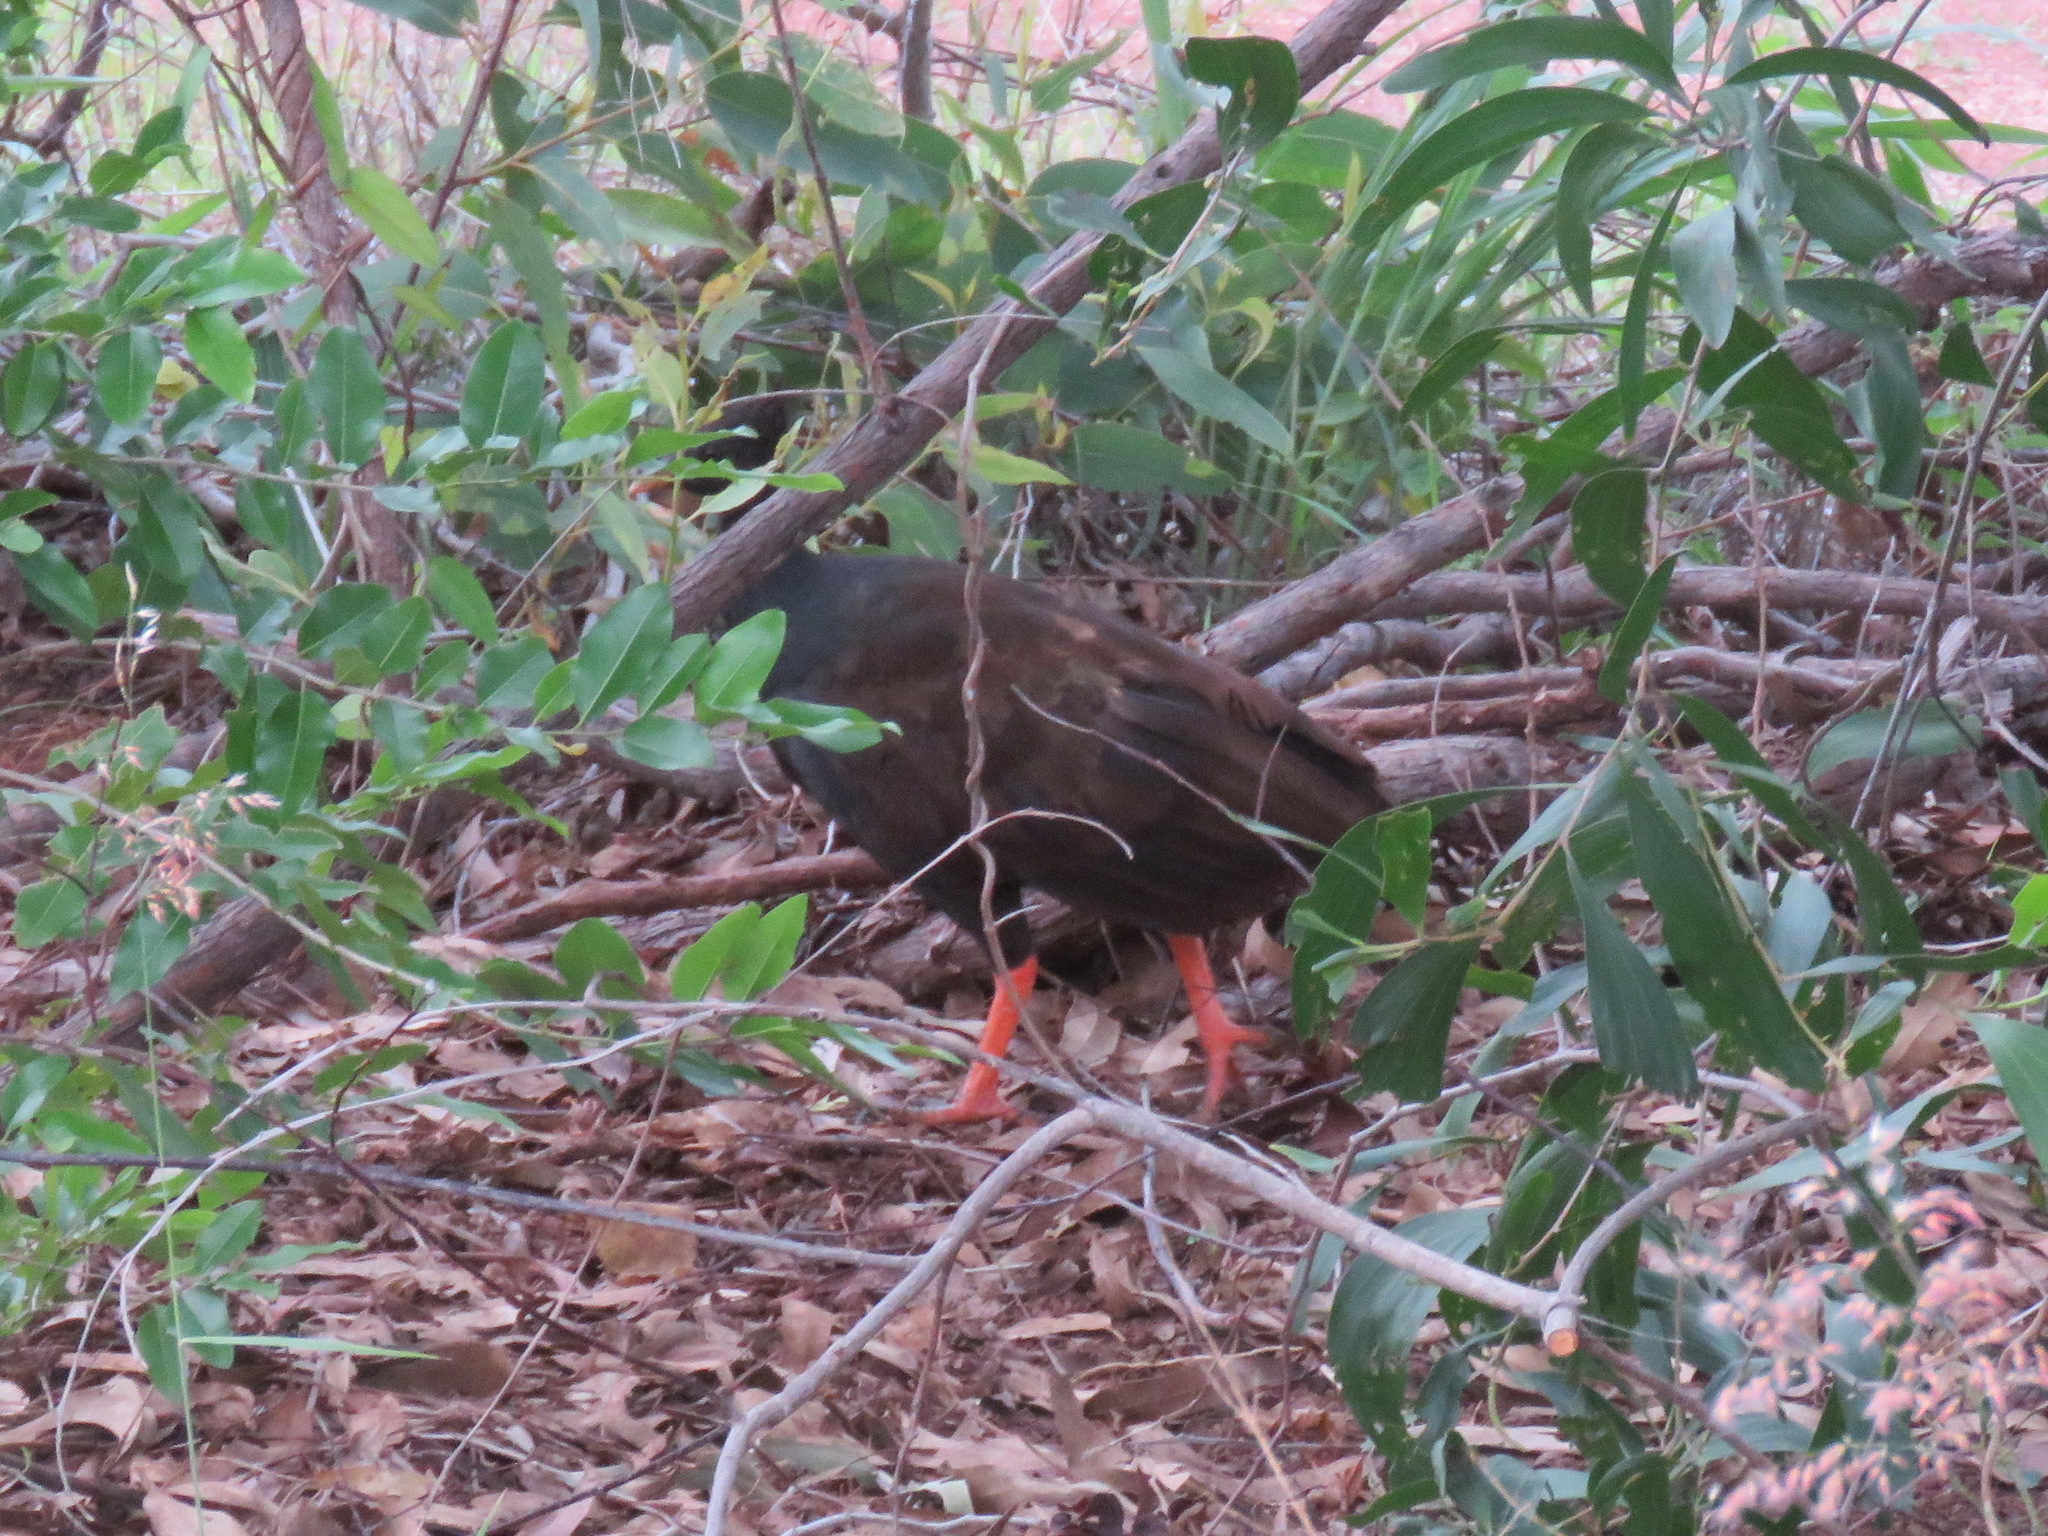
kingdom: Animalia
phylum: Chordata
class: Aves
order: Galliformes
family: Megapodiidae
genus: Megapodius
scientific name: Megapodius reinwardt
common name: Orange-footed scrubfowl
